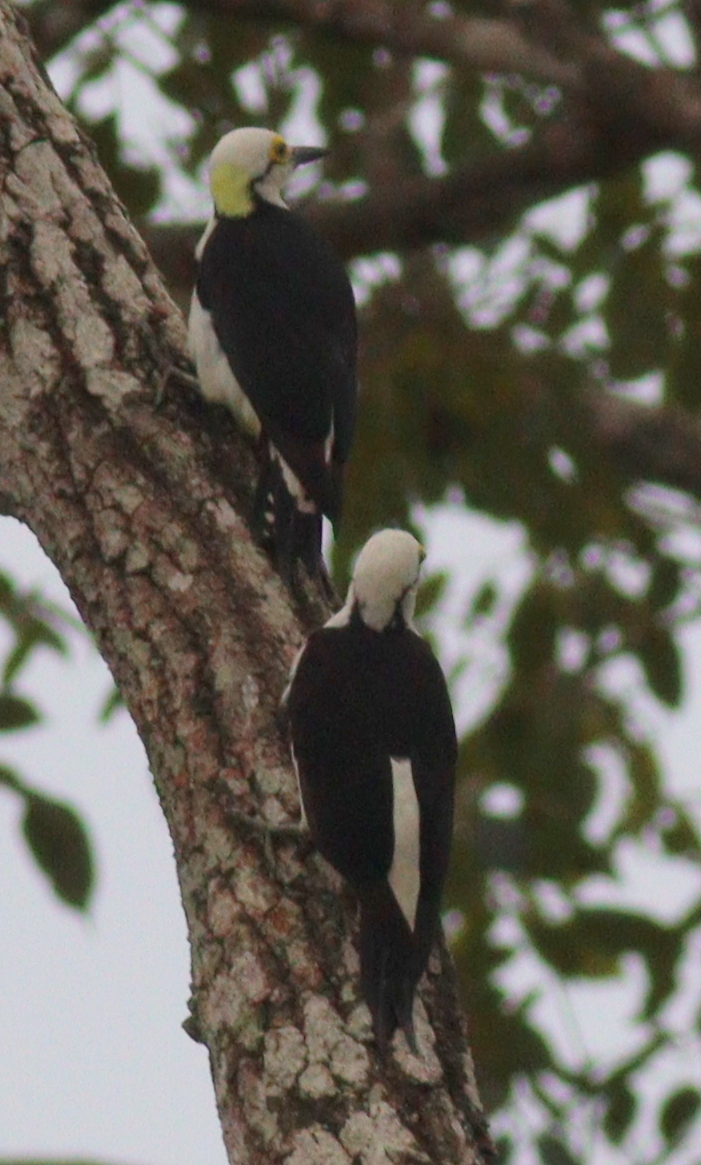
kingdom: Animalia
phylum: Chordata
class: Aves
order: Piciformes
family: Picidae
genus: Melanerpes
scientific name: Melanerpes candidus
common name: White woodpecker
